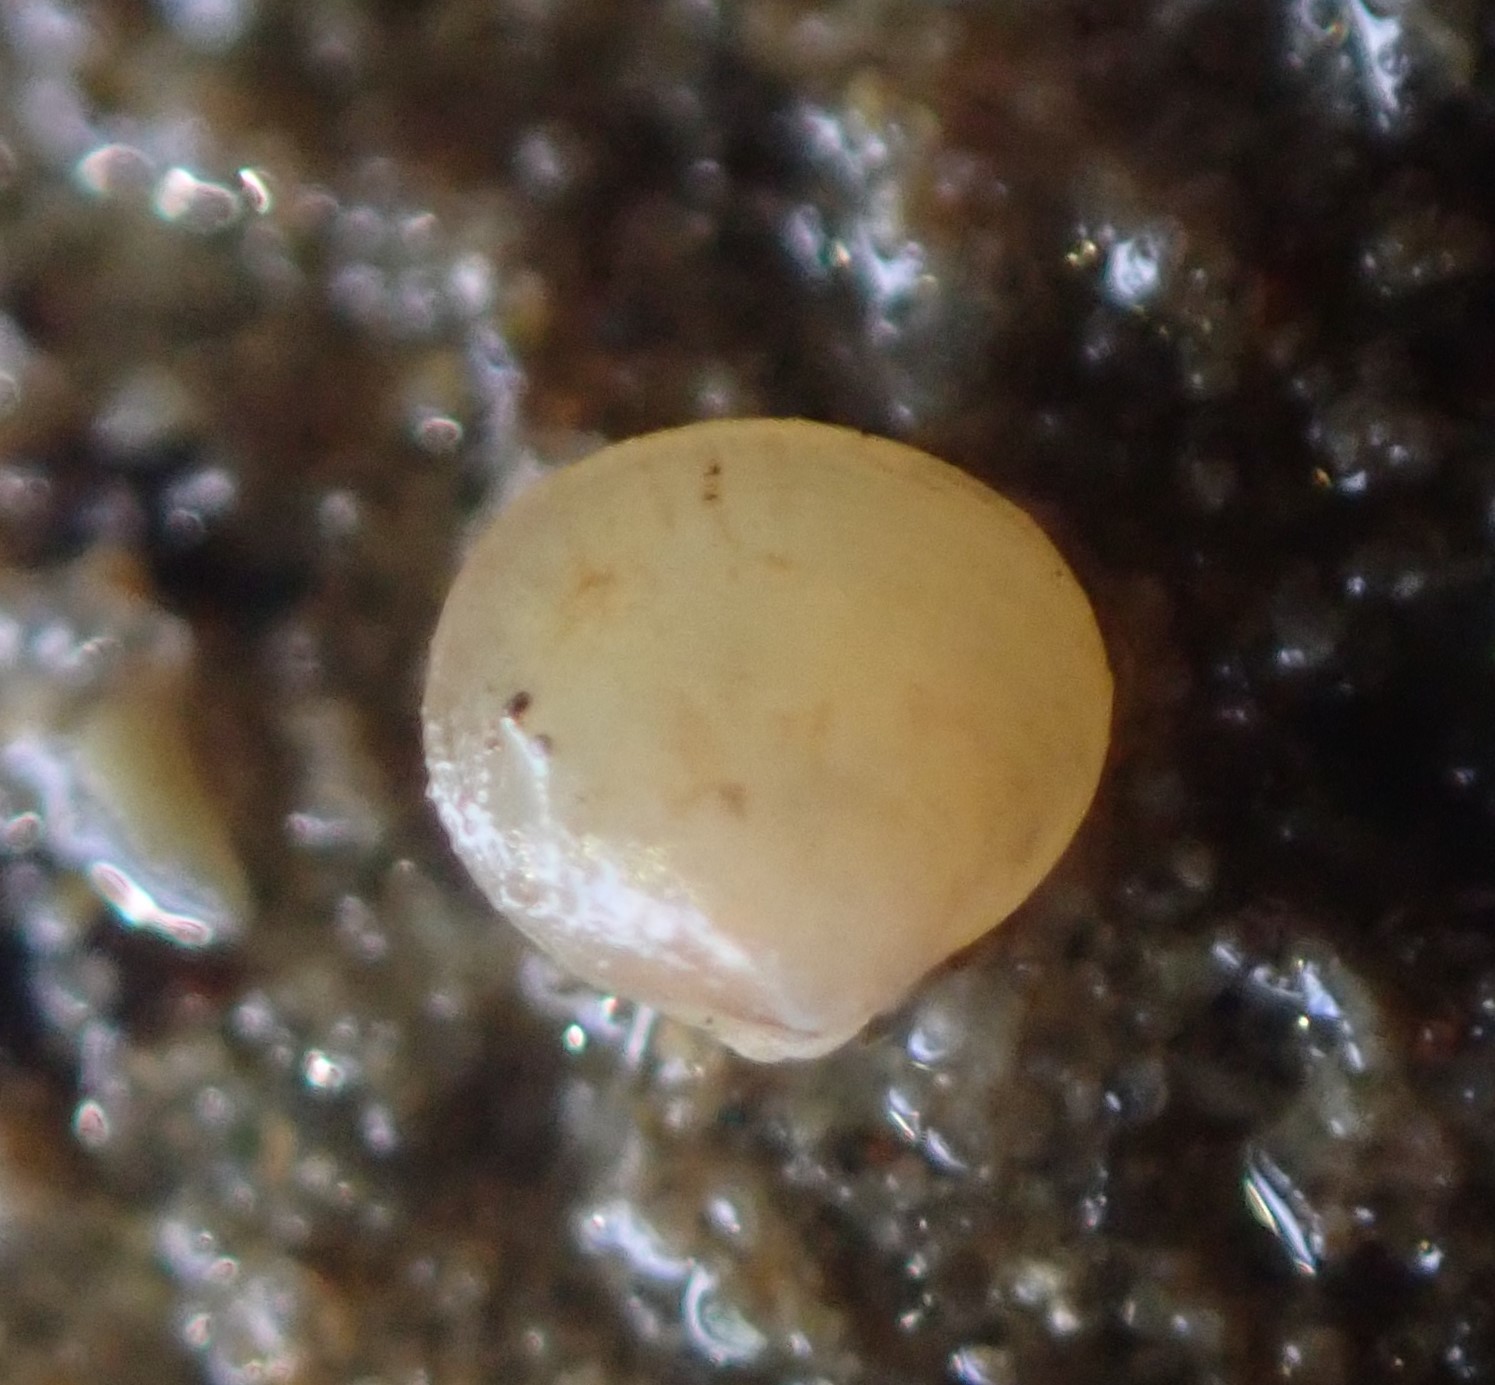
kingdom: Animalia
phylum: Mollusca
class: Bivalvia
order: Venerida
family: Neoleptonidae
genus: Neolepton
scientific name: Neolepton antipodum
